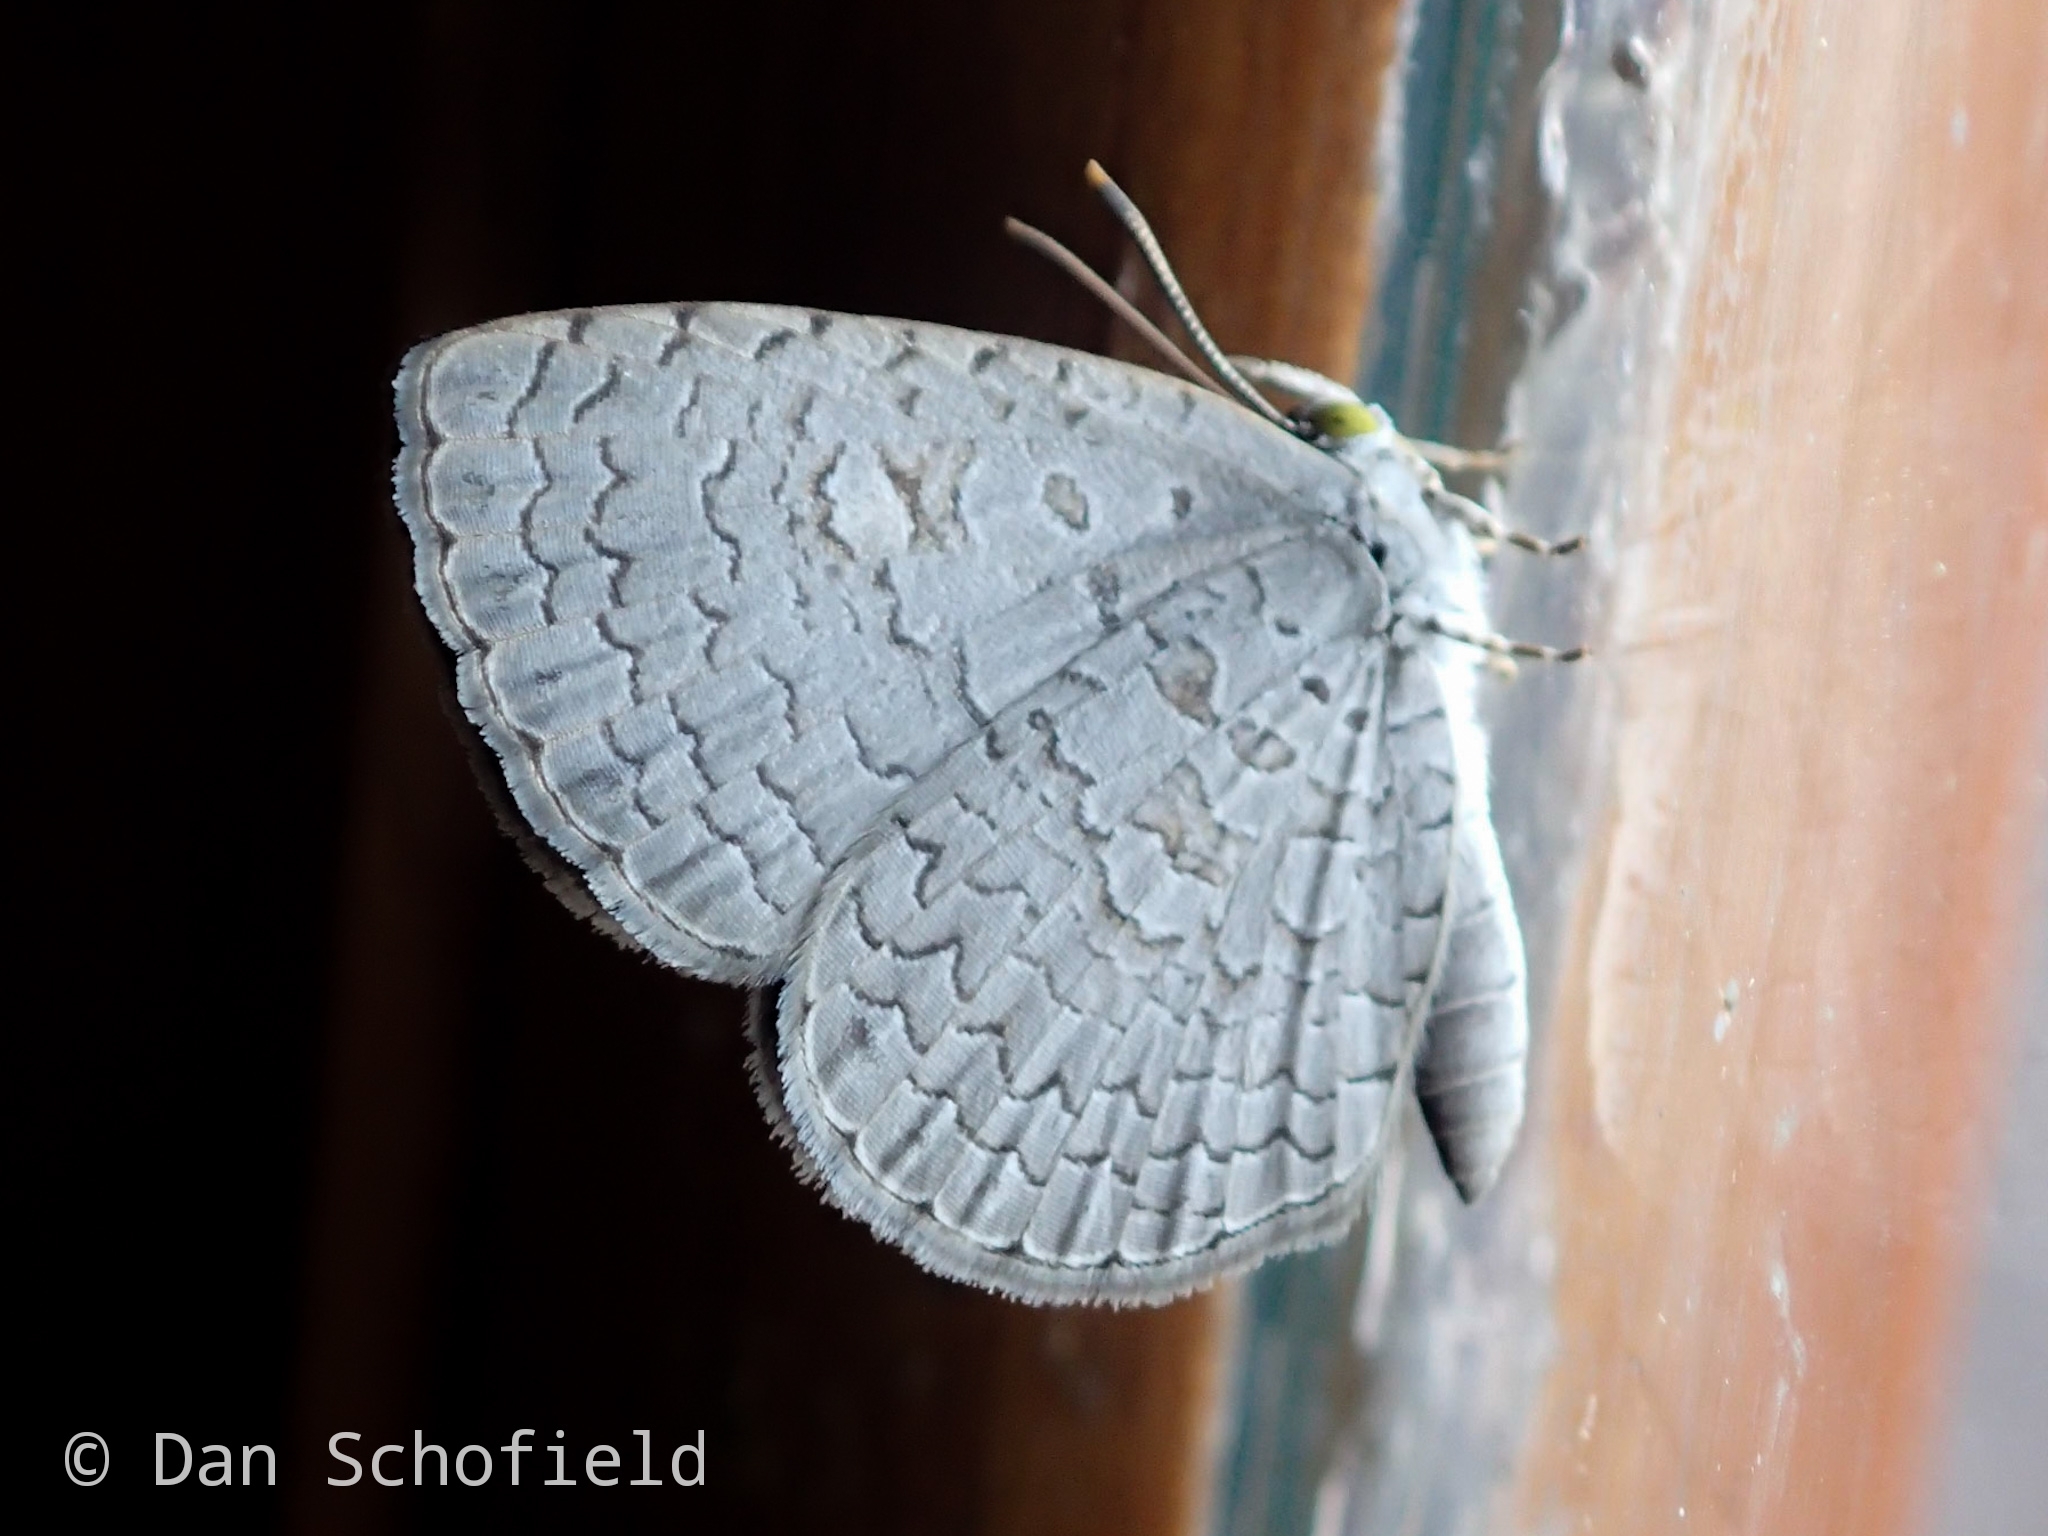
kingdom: Animalia
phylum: Arthropoda
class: Insecta
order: Lepidoptera
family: Lycaenidae
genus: Spalgis
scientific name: Spalgis epius
